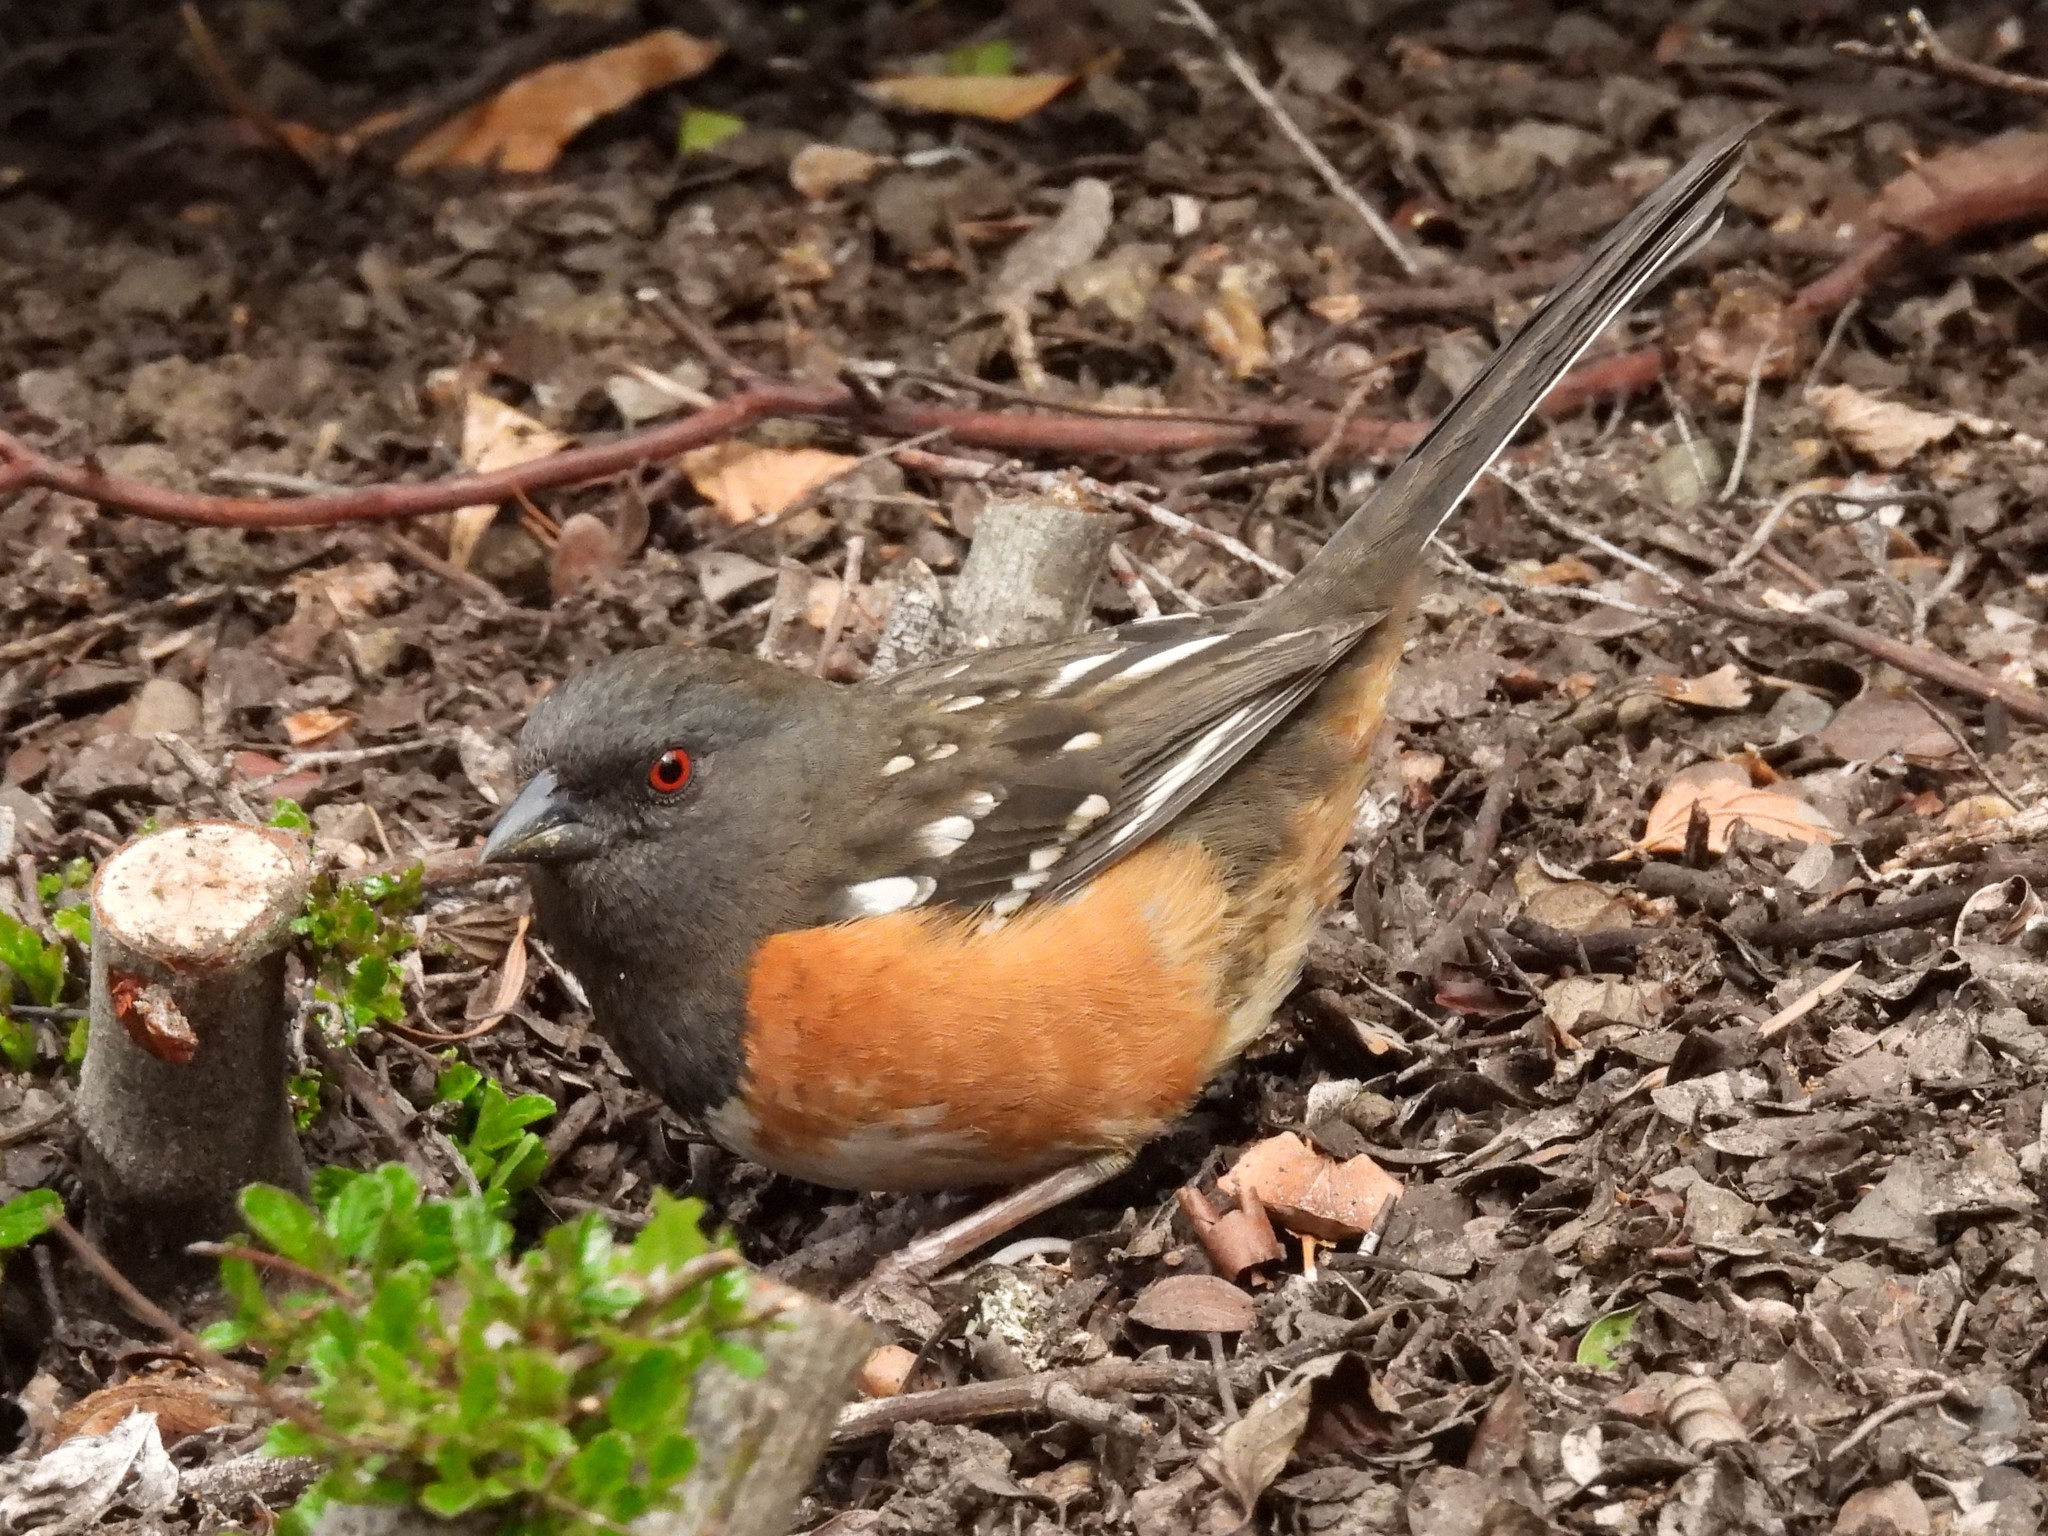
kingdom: Animalia
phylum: Chordata
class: Aves
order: Passeriformes
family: Passerellidae
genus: Pipilo
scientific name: Pipilo maculatus
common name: Spotted towhee
